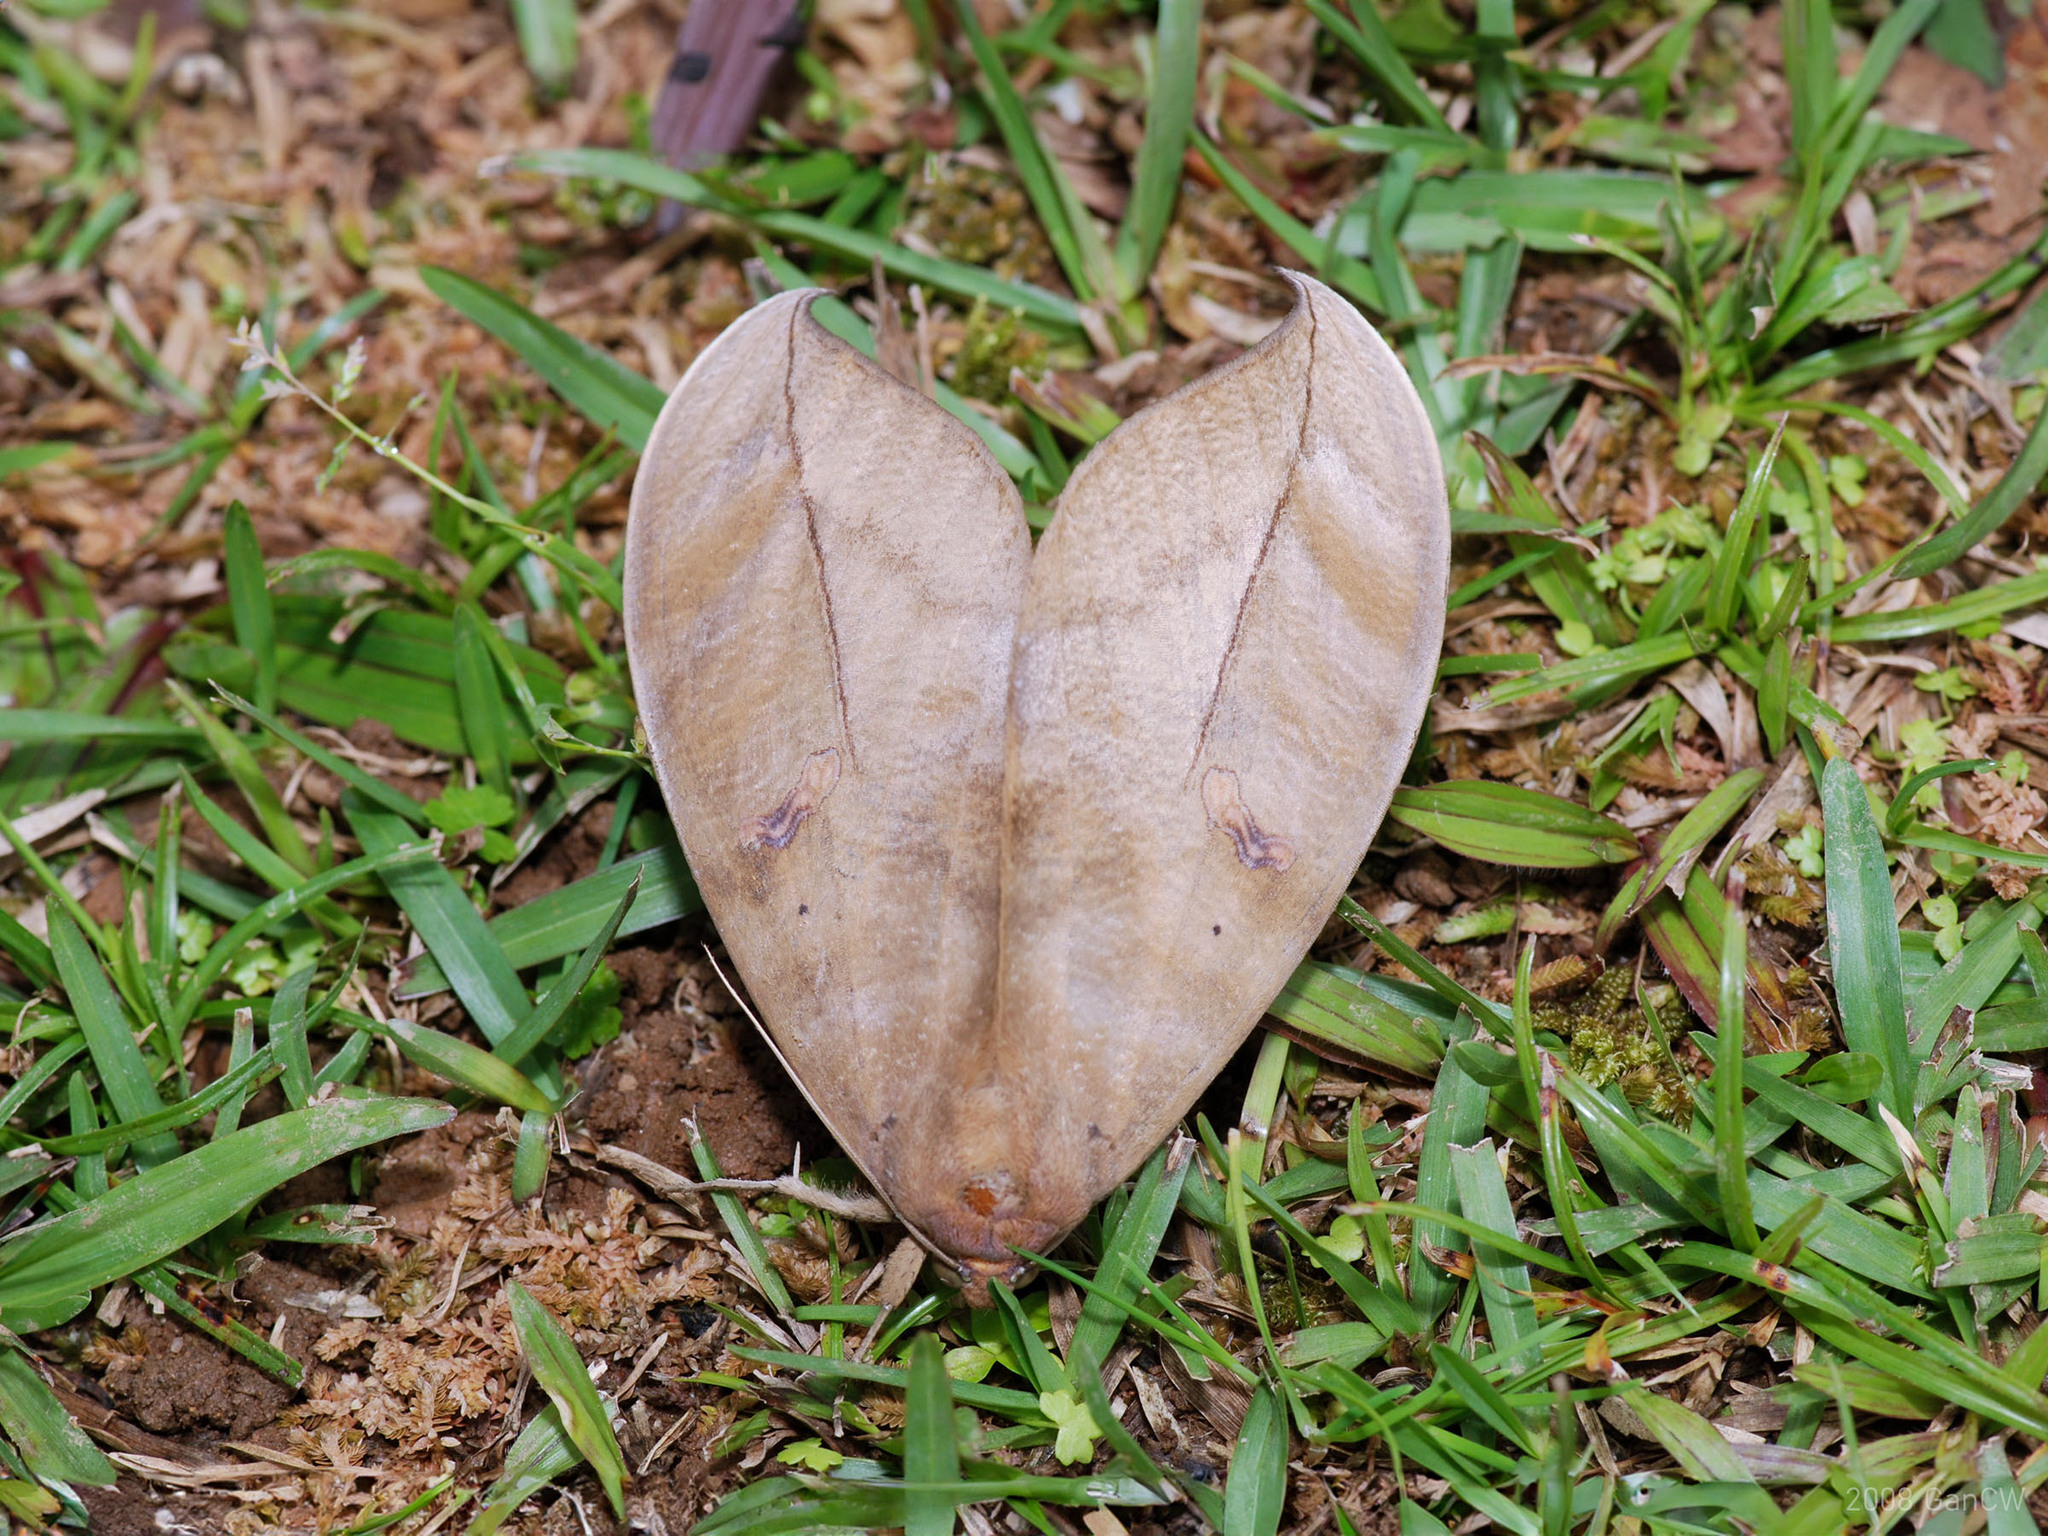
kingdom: Animalia
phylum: Arthropoda
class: Insecta
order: Lepidoptera
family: Erebidae
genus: Phyllodes
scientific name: Phyllodes eyndhovii
